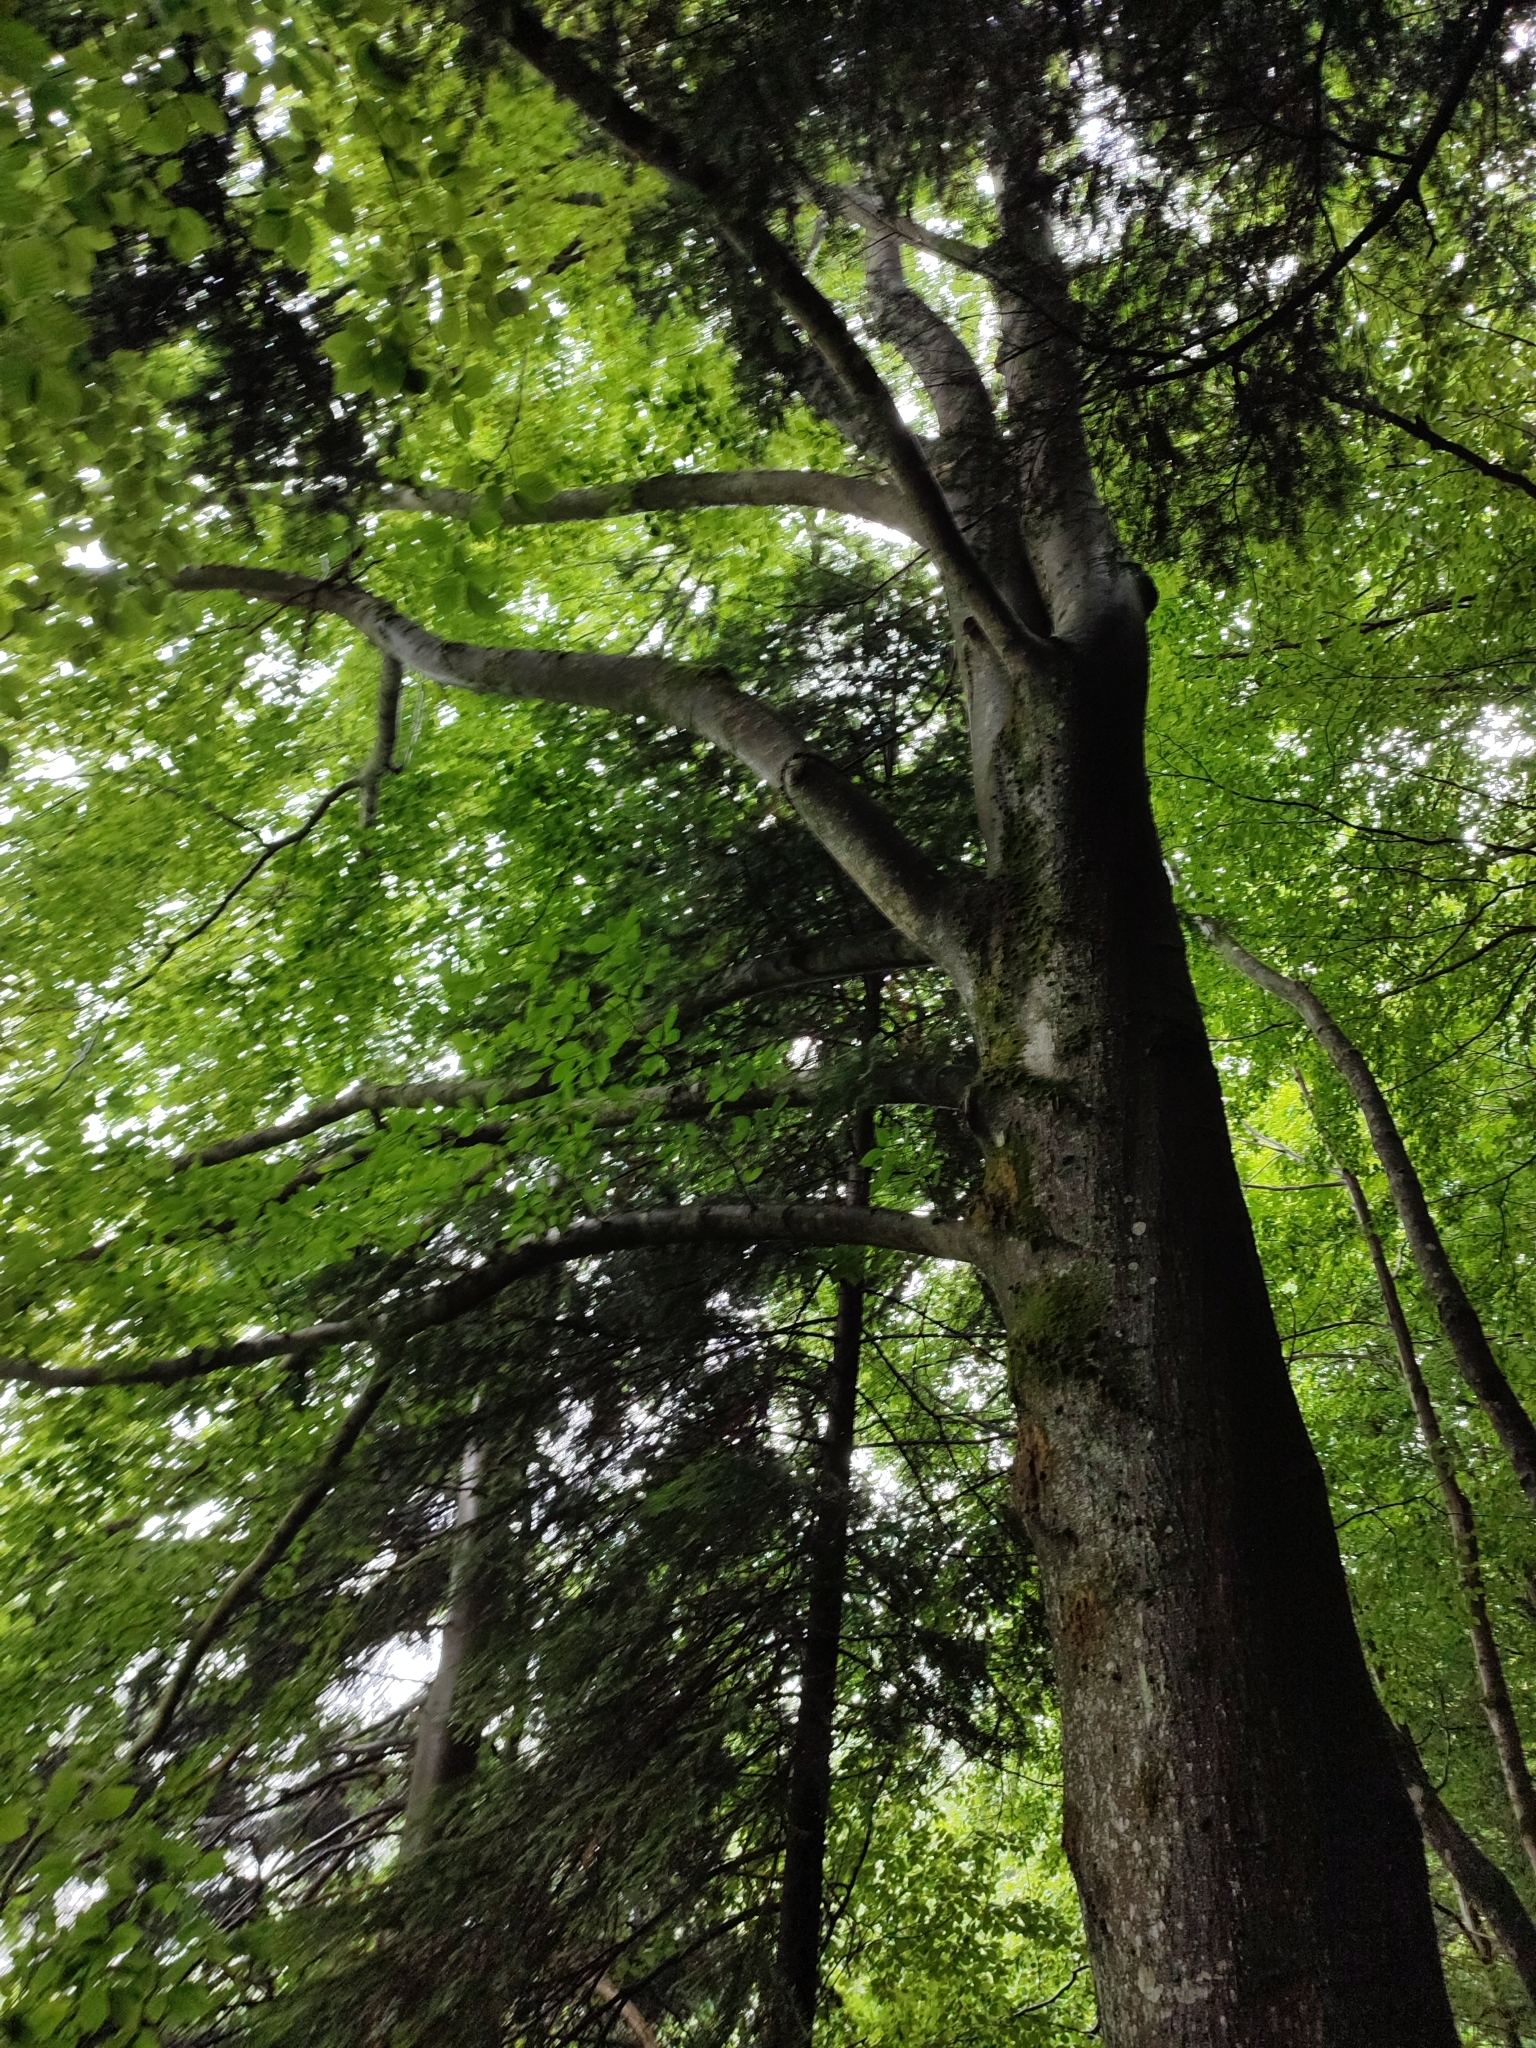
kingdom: Plantae
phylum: Tracheophyta
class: Magnoliopsida
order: Fagales
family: Fagaceae
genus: Fagus
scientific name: Fagus sylvatica
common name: Beech
